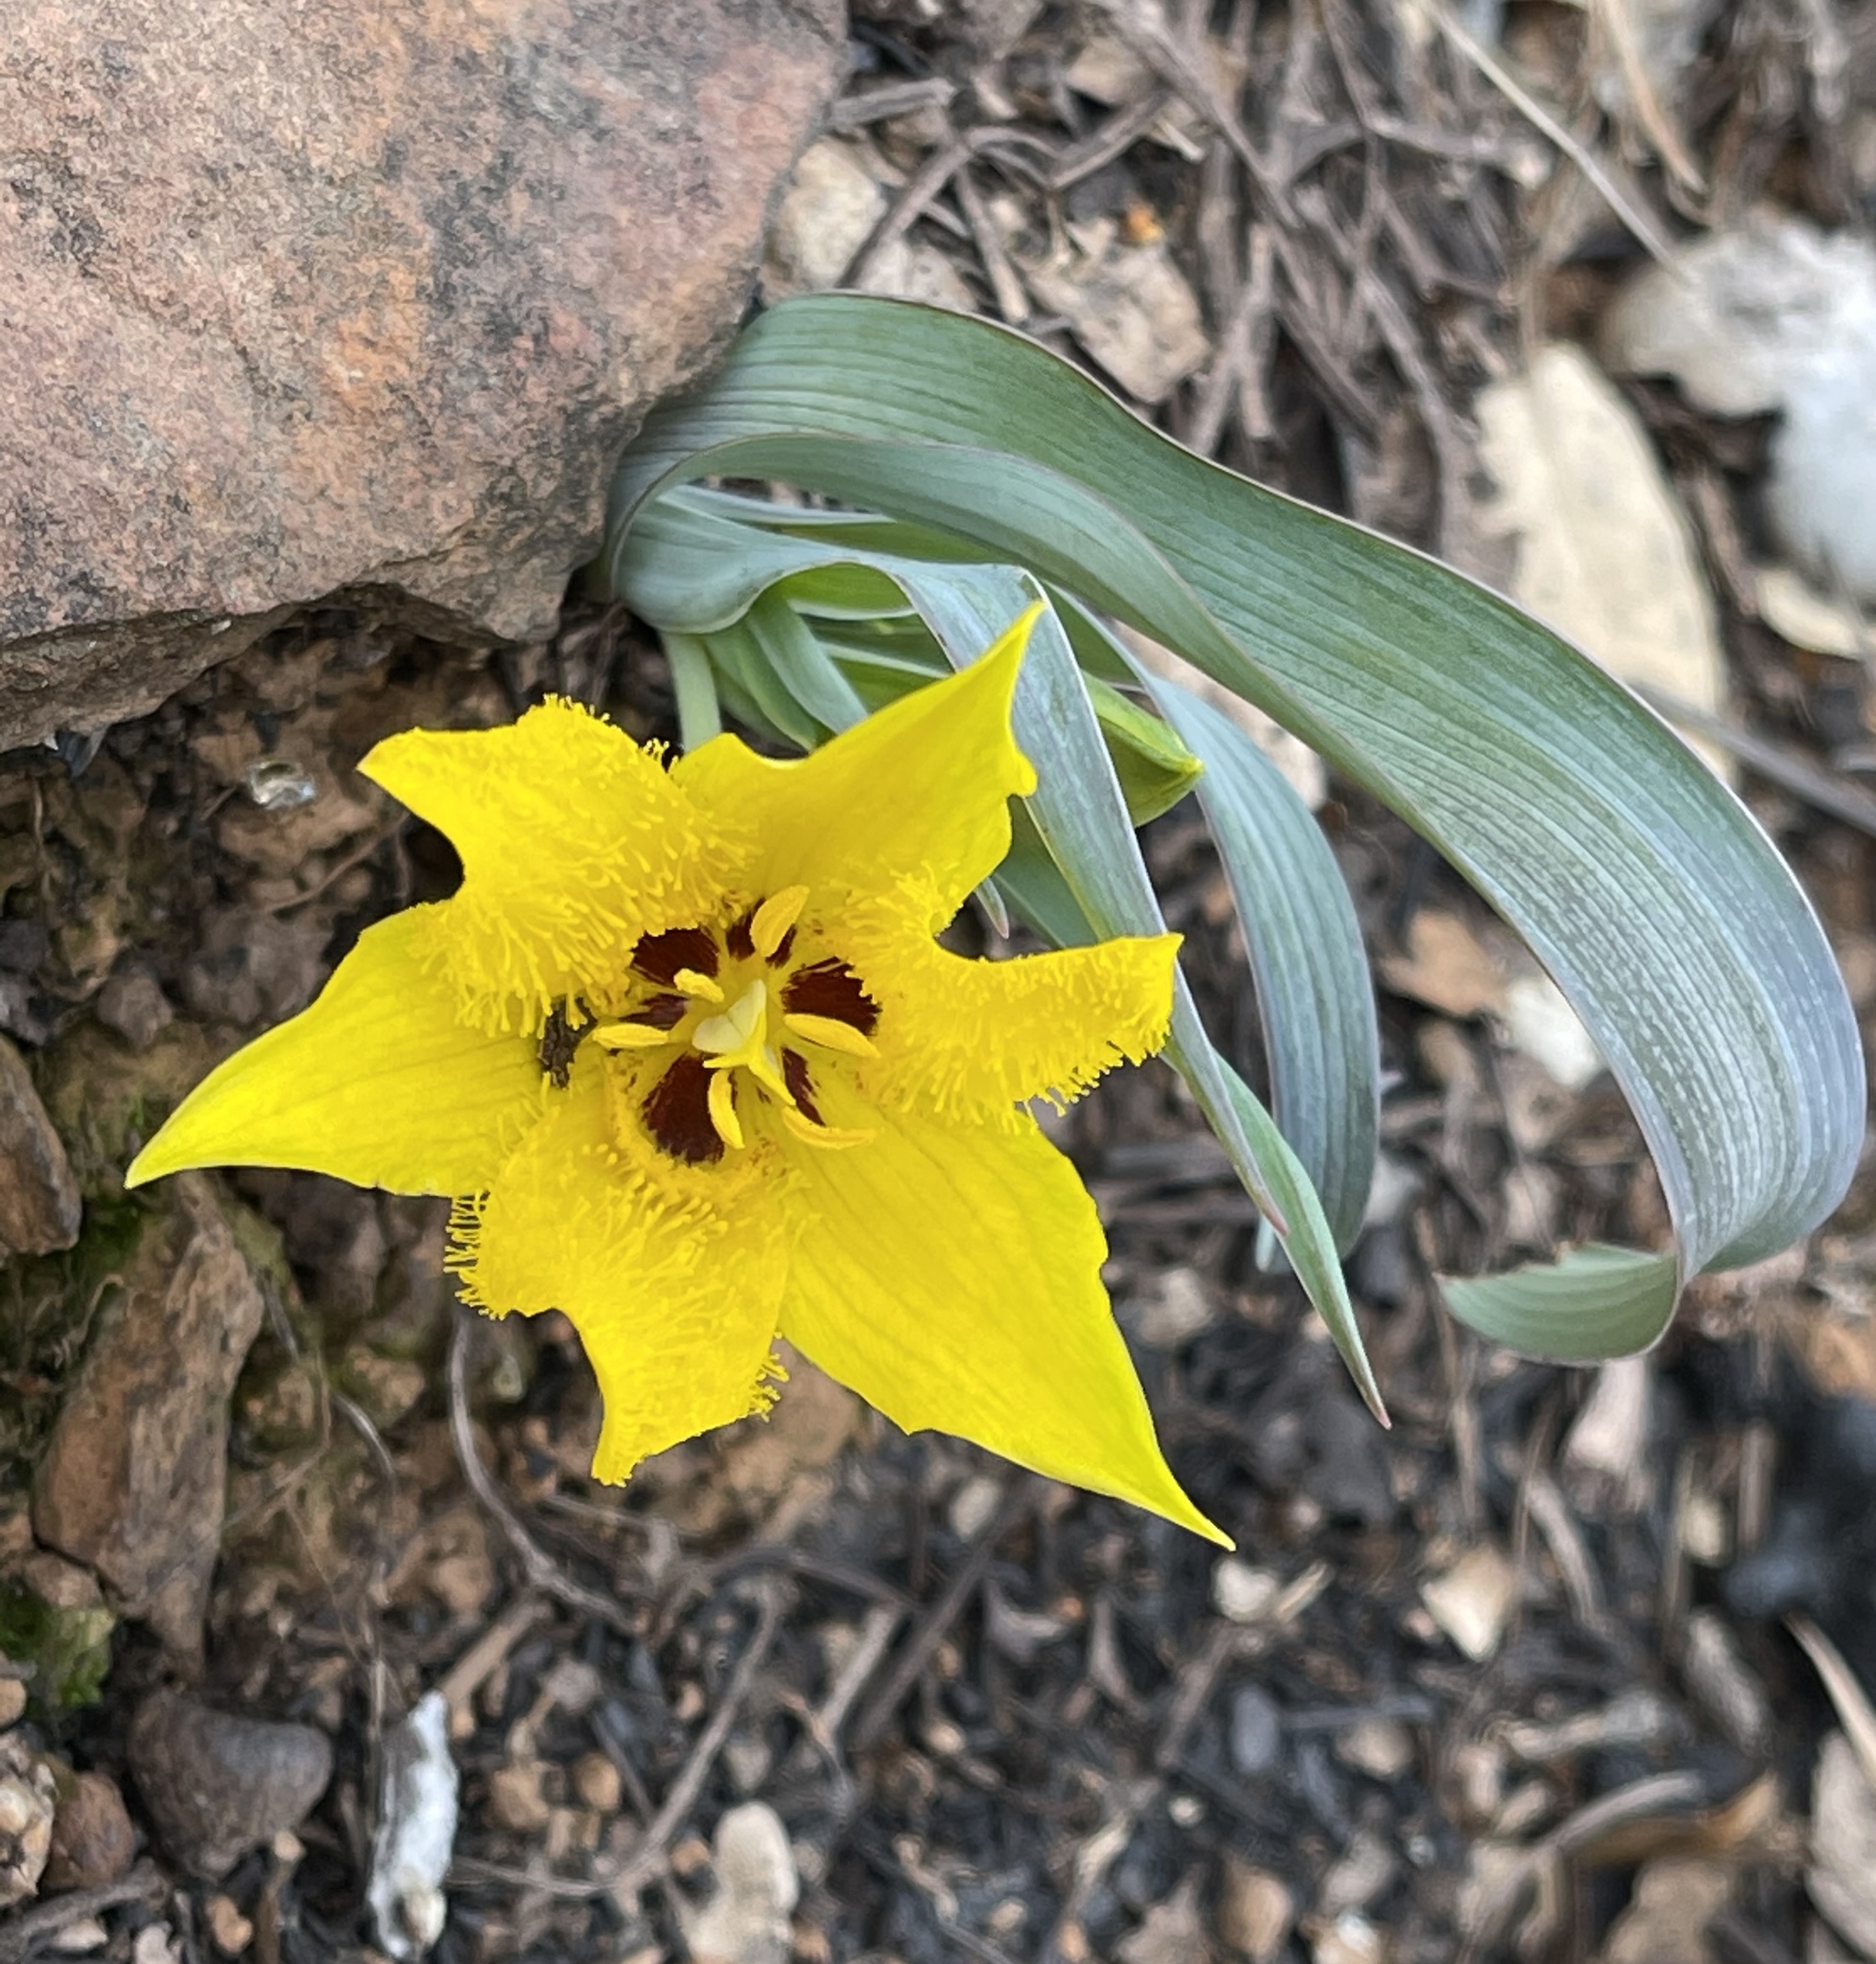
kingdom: Plantae
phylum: Tracheophyta
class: Liliopsida
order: Liliales
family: Liliaceae
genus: Calochortus
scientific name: Calochortus monophyllus
